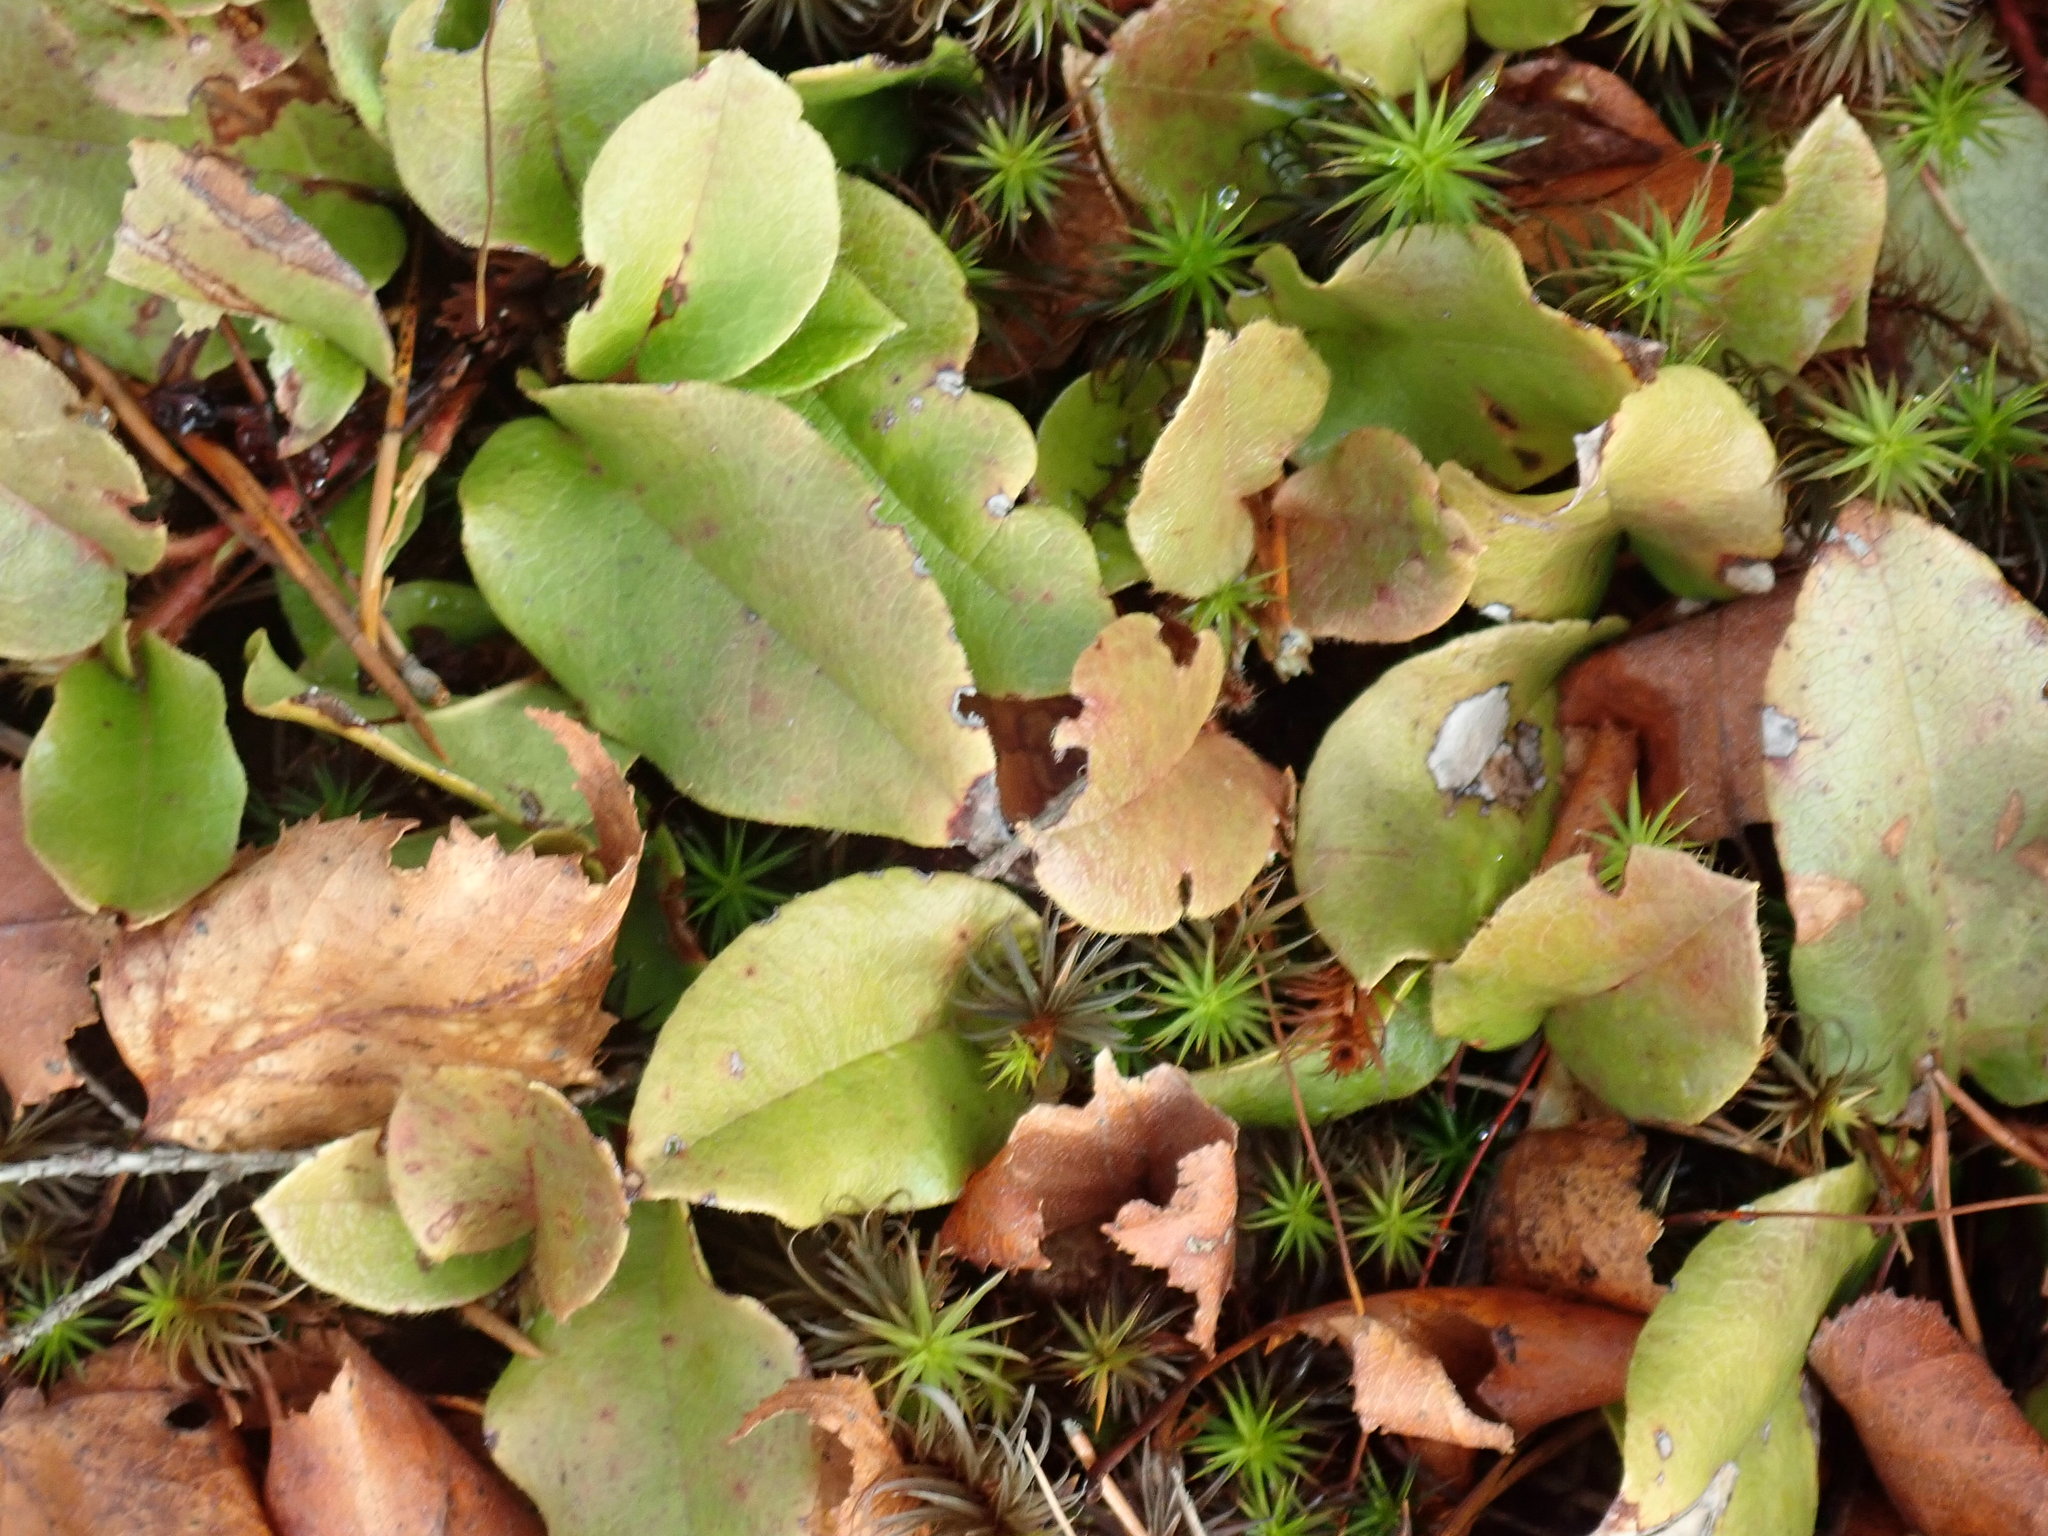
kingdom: Plantae
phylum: Tracheophyta
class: Magnoliopsida
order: Ericales
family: Ericaceae
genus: Epigaea
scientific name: Epigaea repens
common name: Gravelroot
